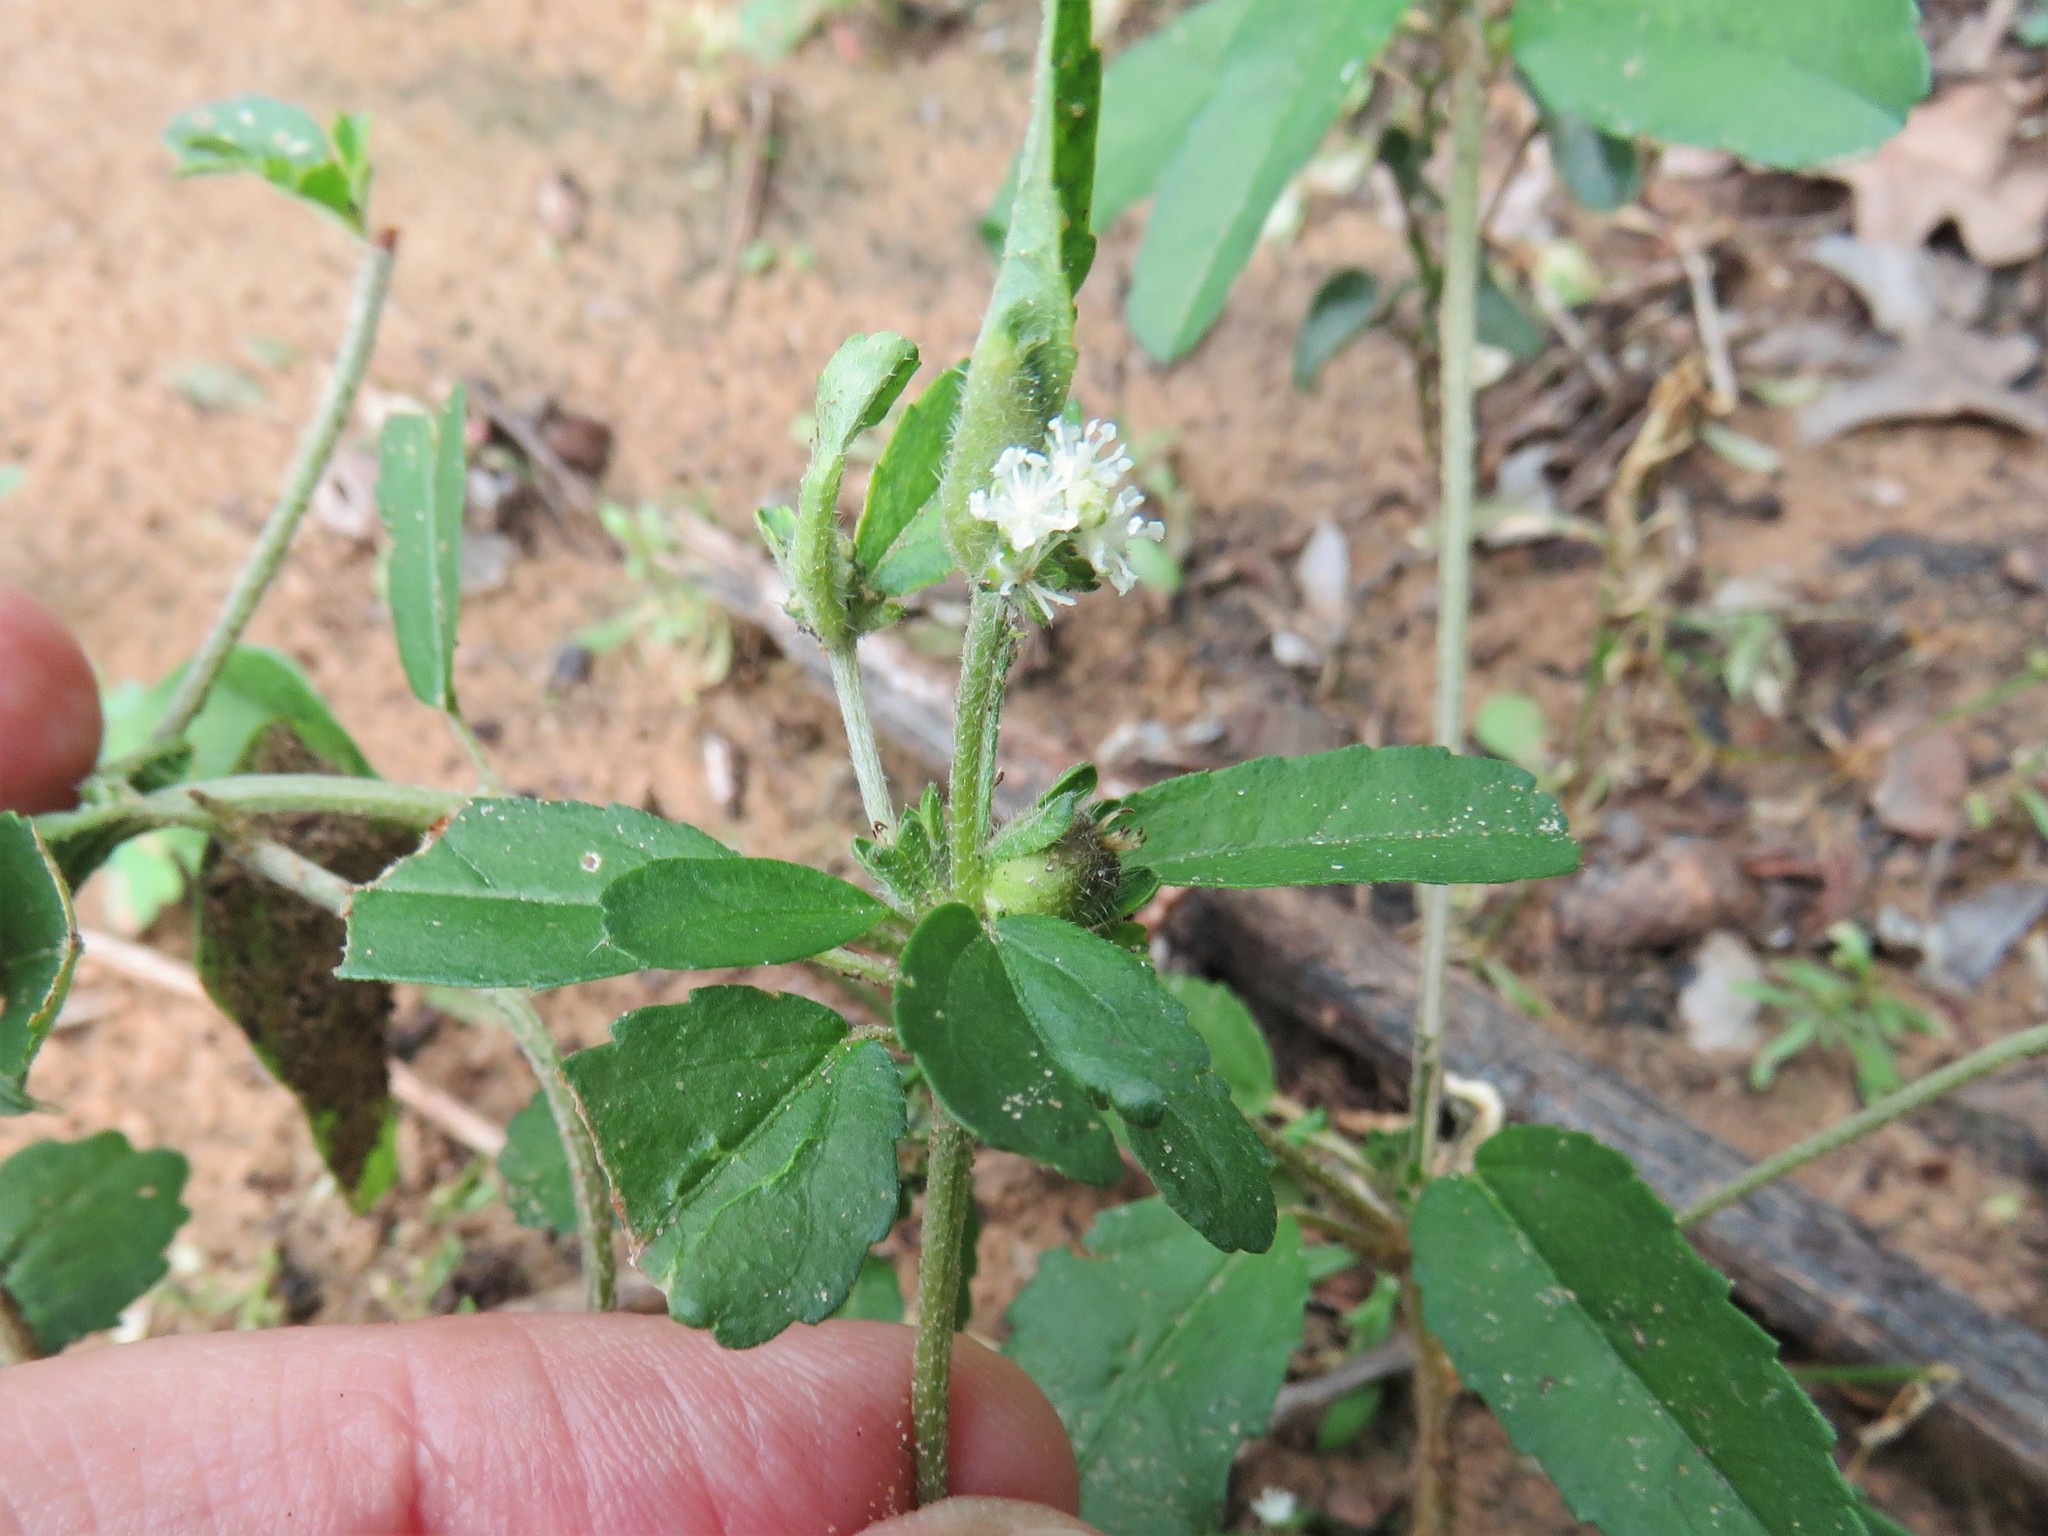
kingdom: Plantae
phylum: Tracheophyta
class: Magnoliopsida
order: Malpighiales
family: Euphorbiaceae
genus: Croton
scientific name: Croton glandulosus
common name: Tropic croton
